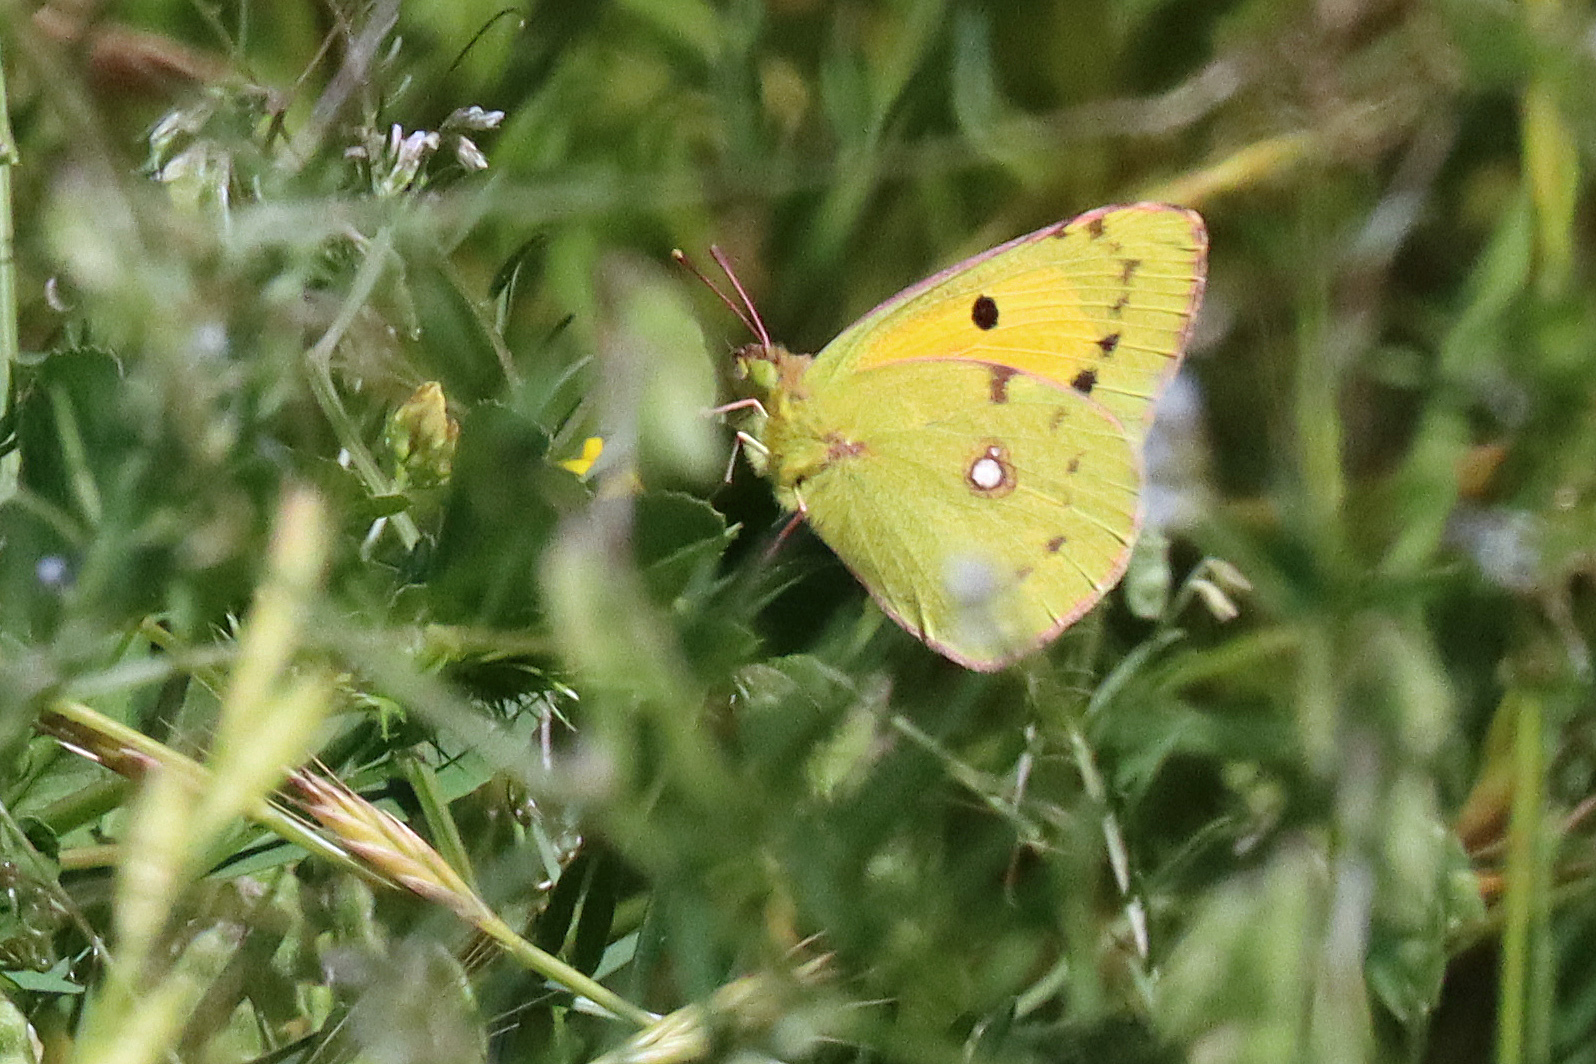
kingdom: Animalia
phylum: Arthropoda
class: Insecta
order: Lepidoptera
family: Pieridae
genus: Colias
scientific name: Colias croceus
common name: Clouded yellow
